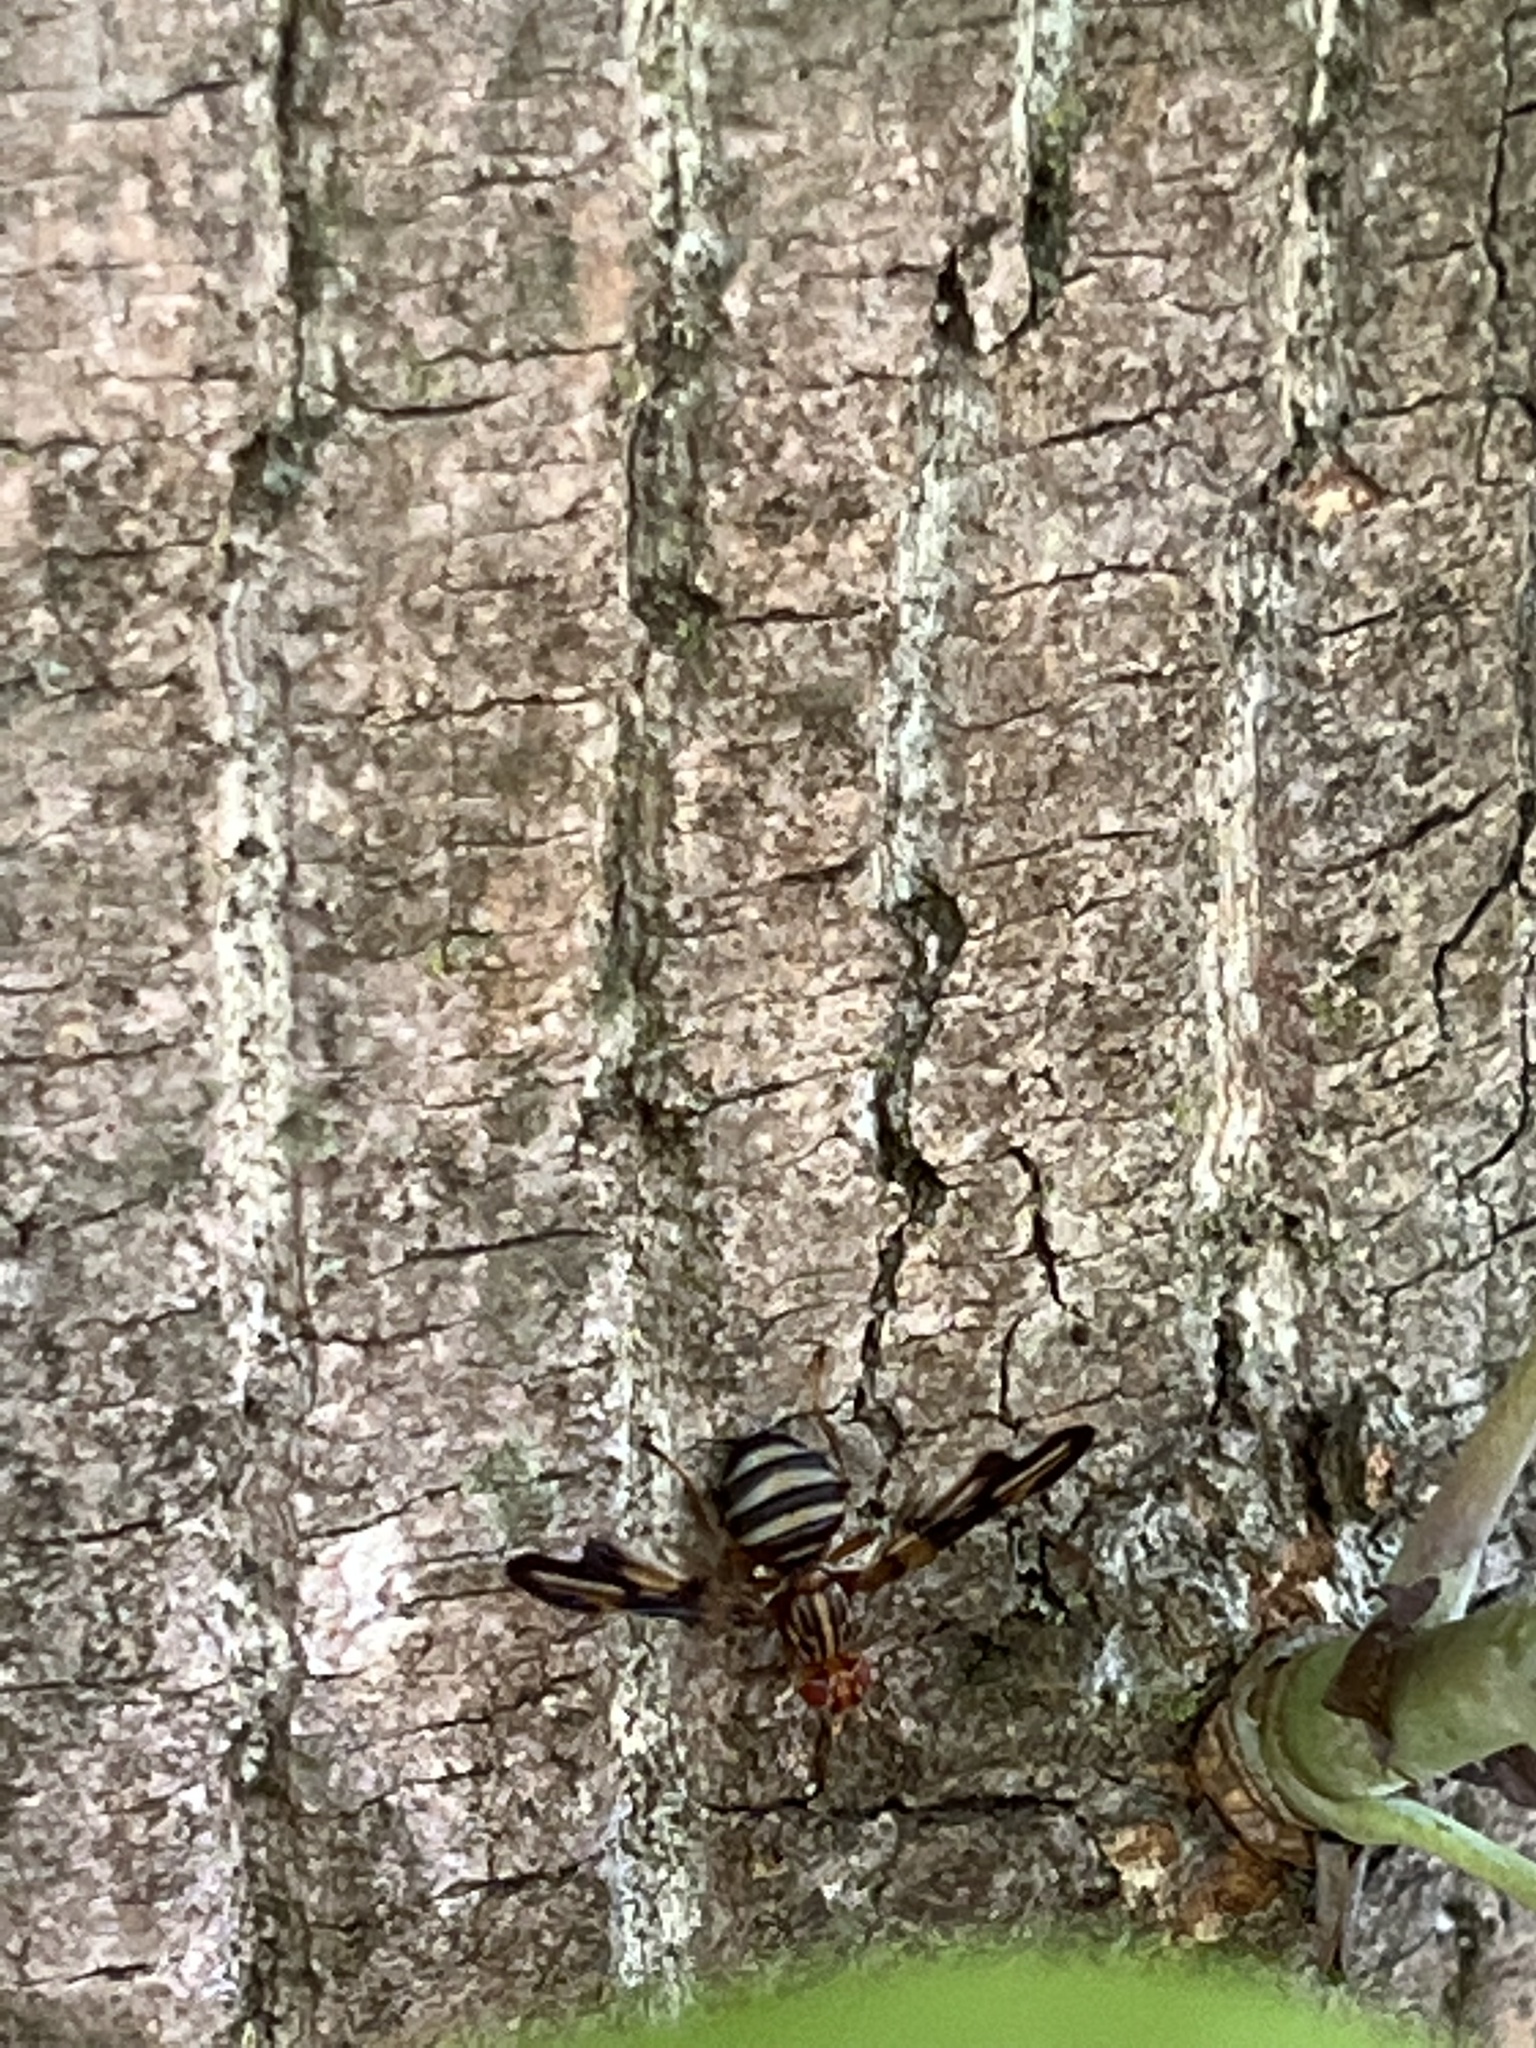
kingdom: Animalia
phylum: Arthropoda
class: Insecta
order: Diptera
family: Ulidiidae
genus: Idana
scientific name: Idana marginata
